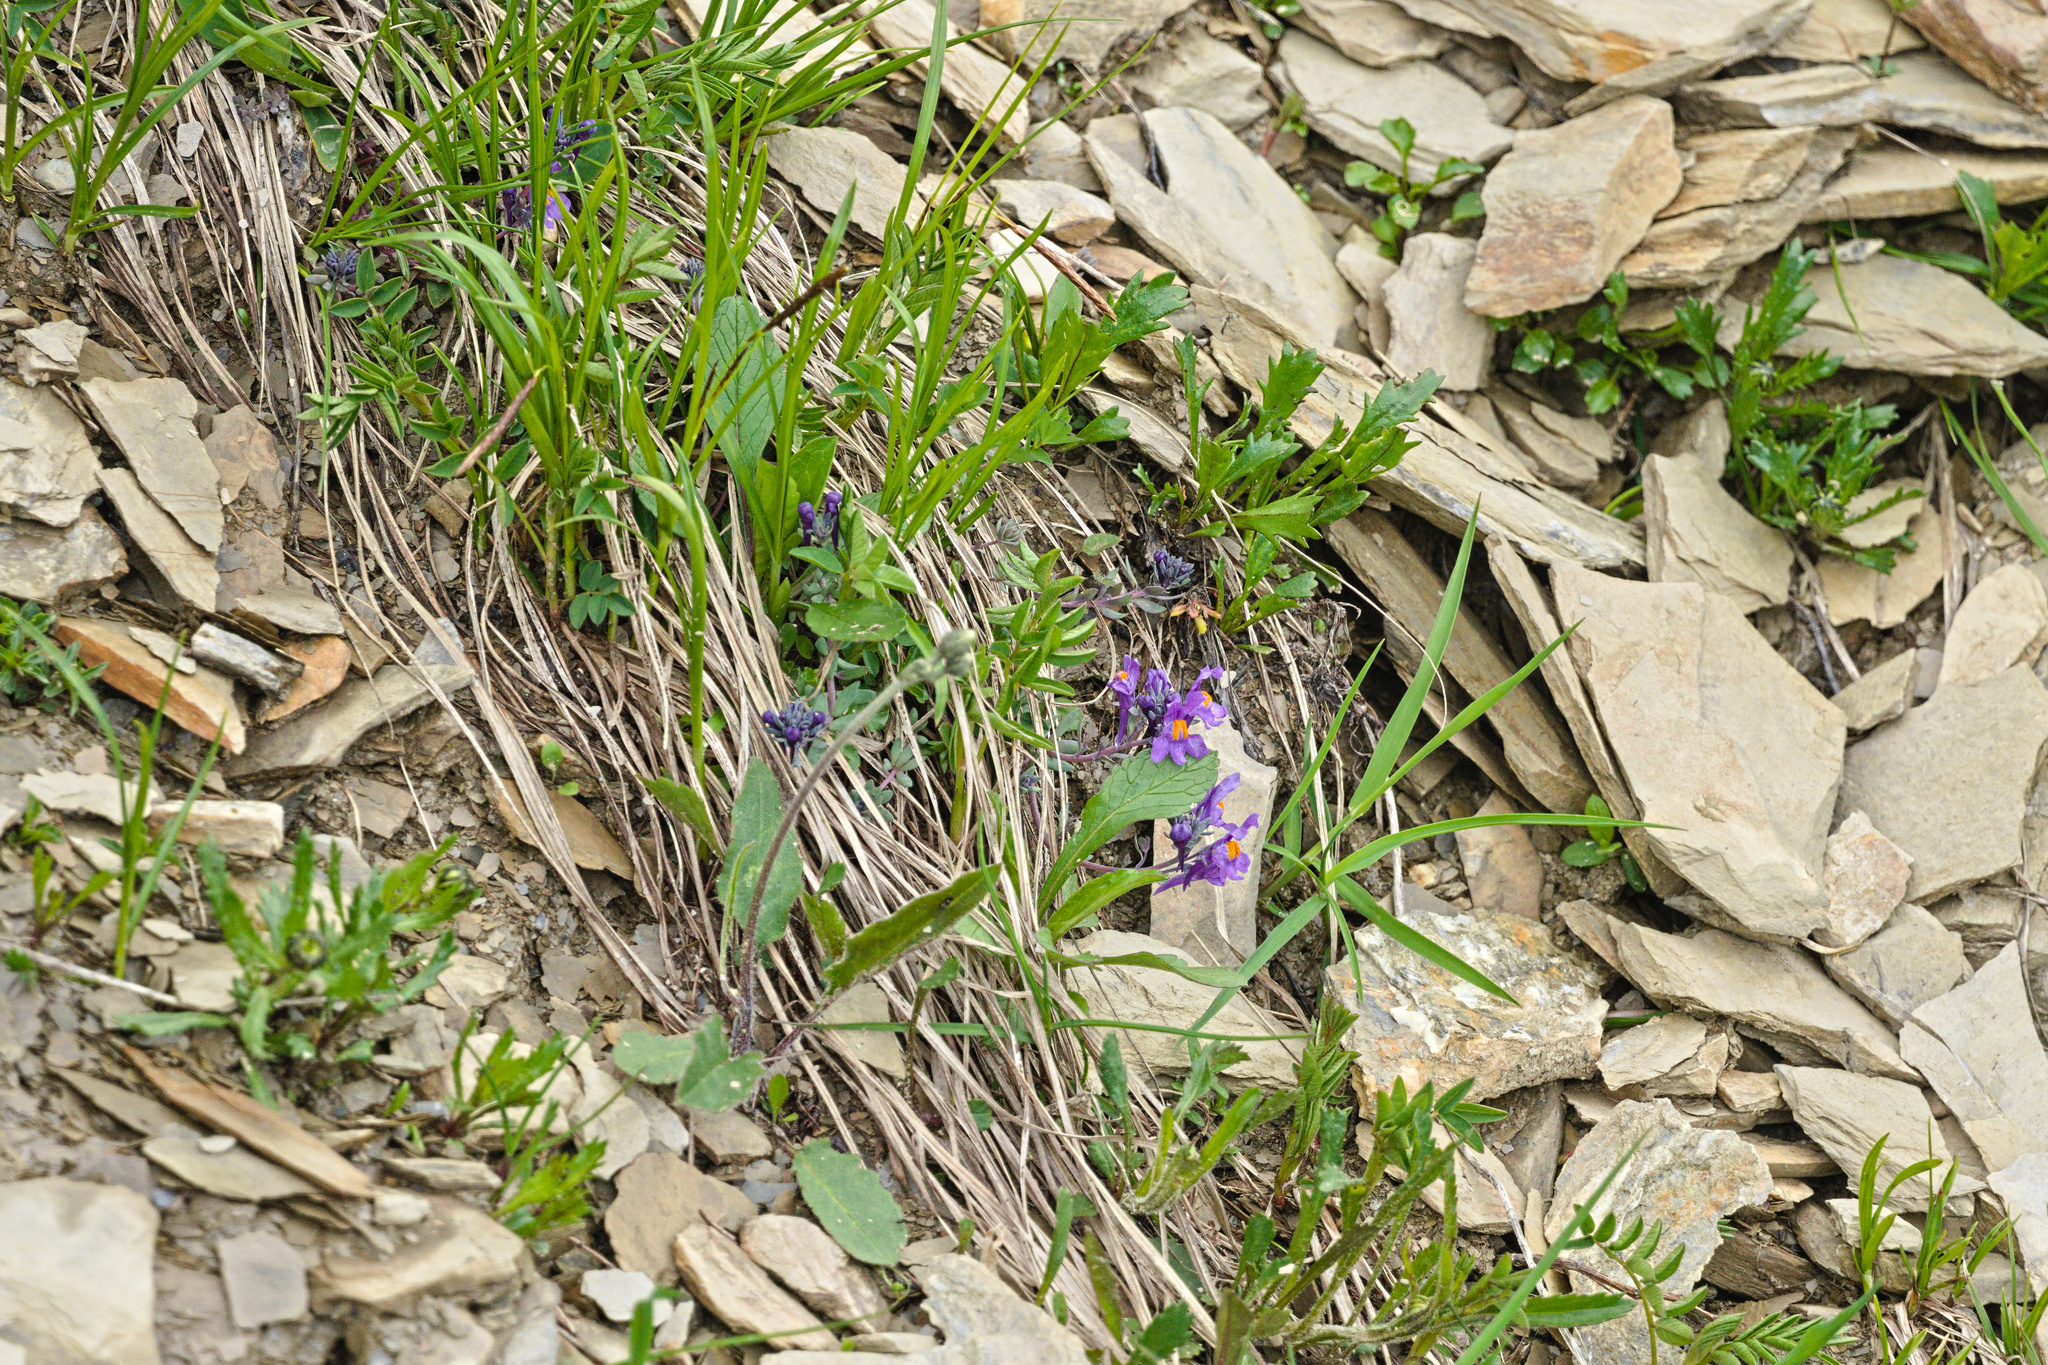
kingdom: Plantae
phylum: Tracheophyta
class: Magnoliopsida
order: Lamiales
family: Plantaginaceae
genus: Linaria
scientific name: Linaria alpina
